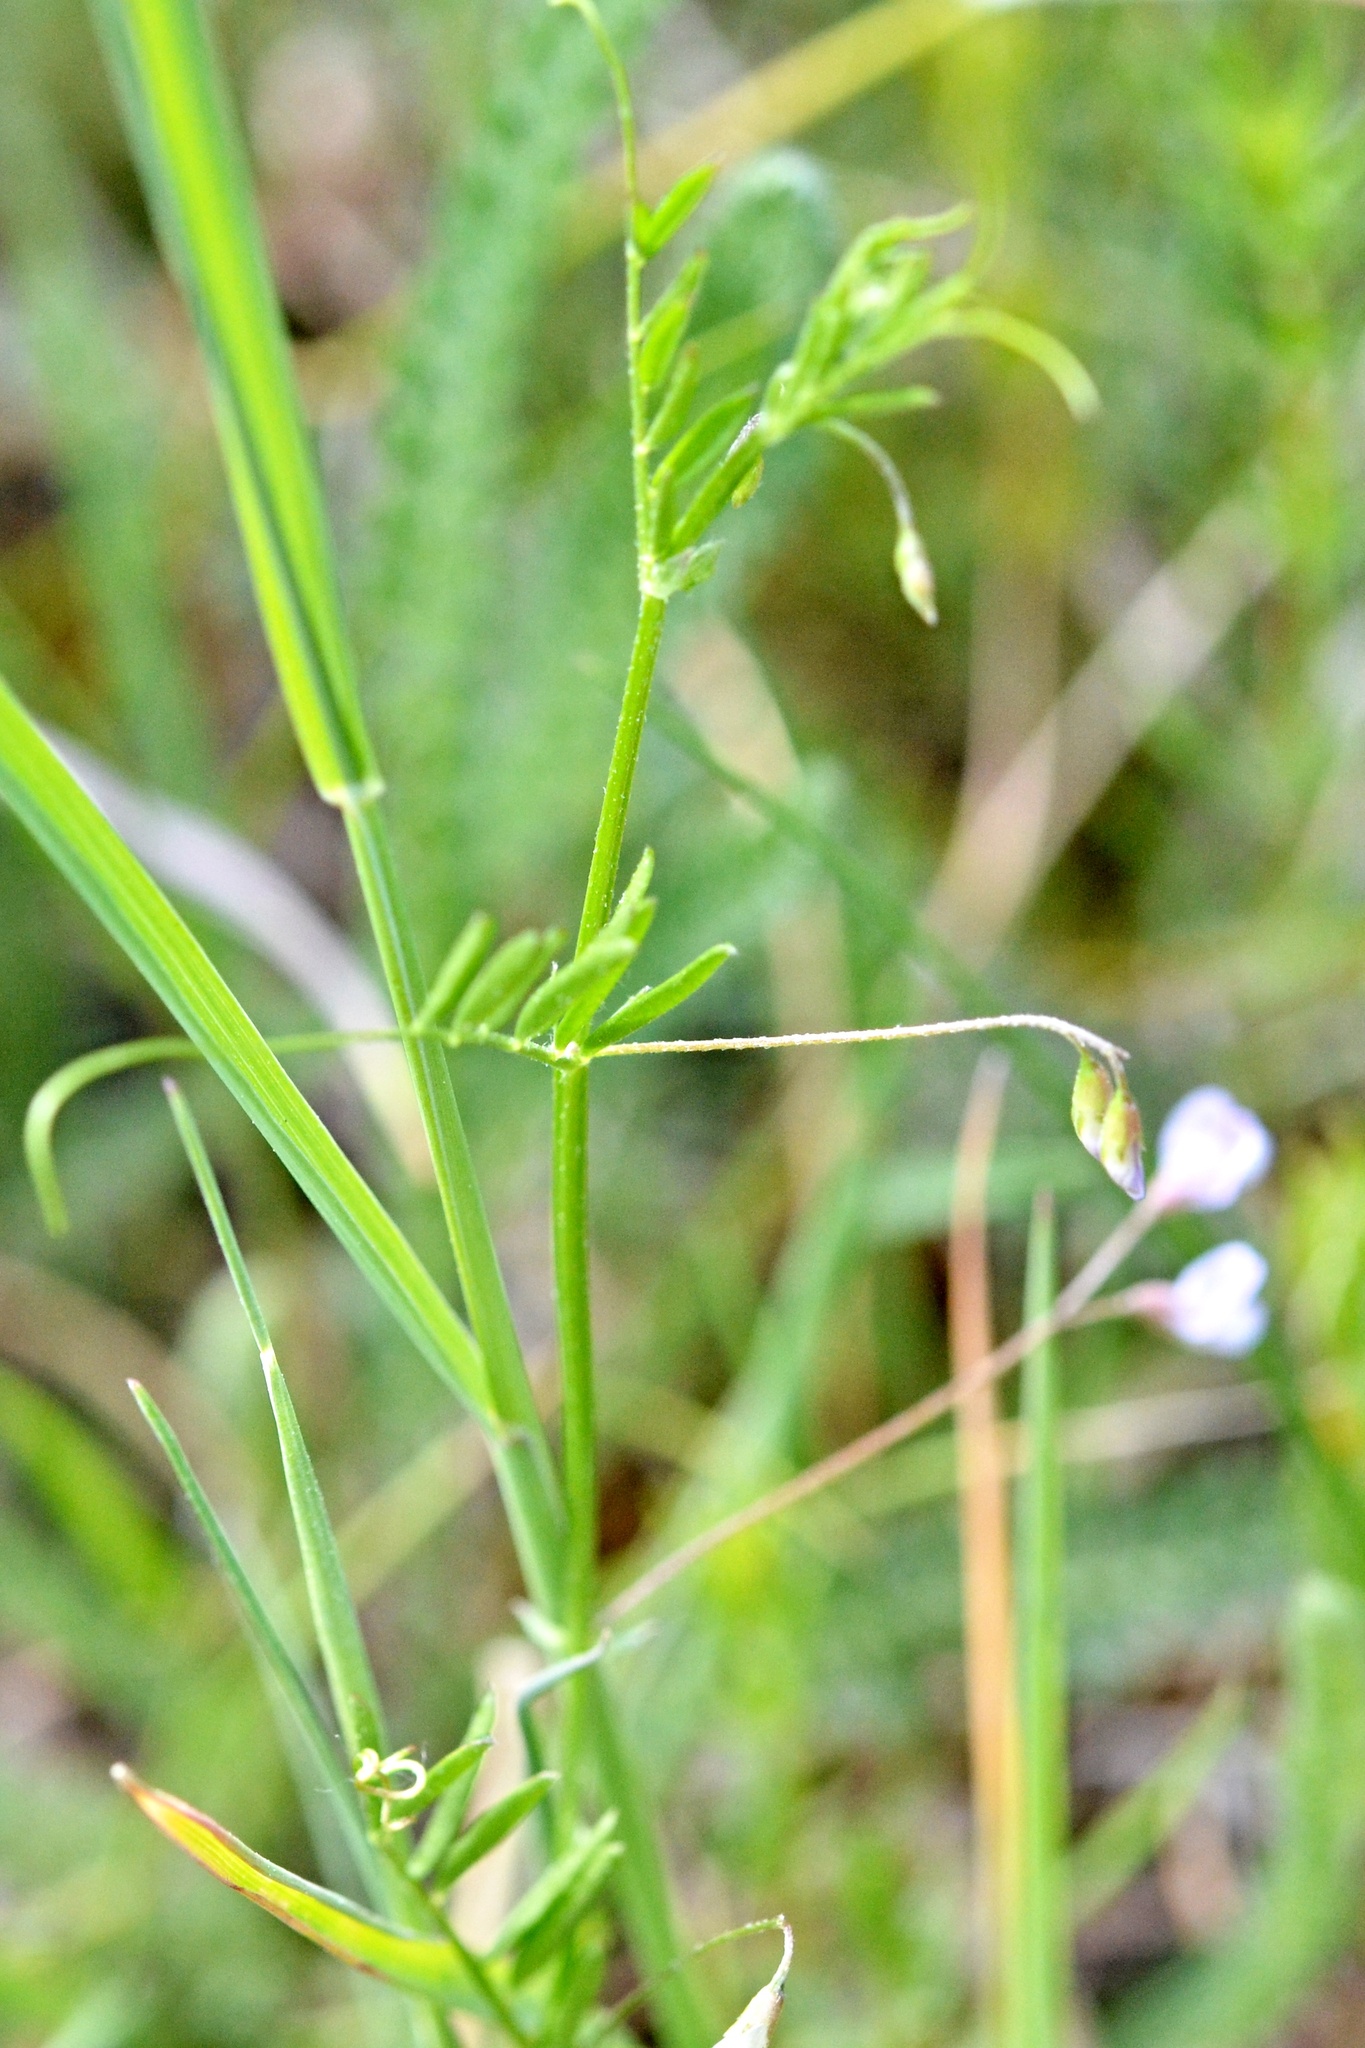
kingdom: Plantae
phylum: Tracheophyta
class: Magnoliopsida
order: Fabales
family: Fabaceae
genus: Vicia
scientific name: Vicia tetrasperma
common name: Smooth tare
